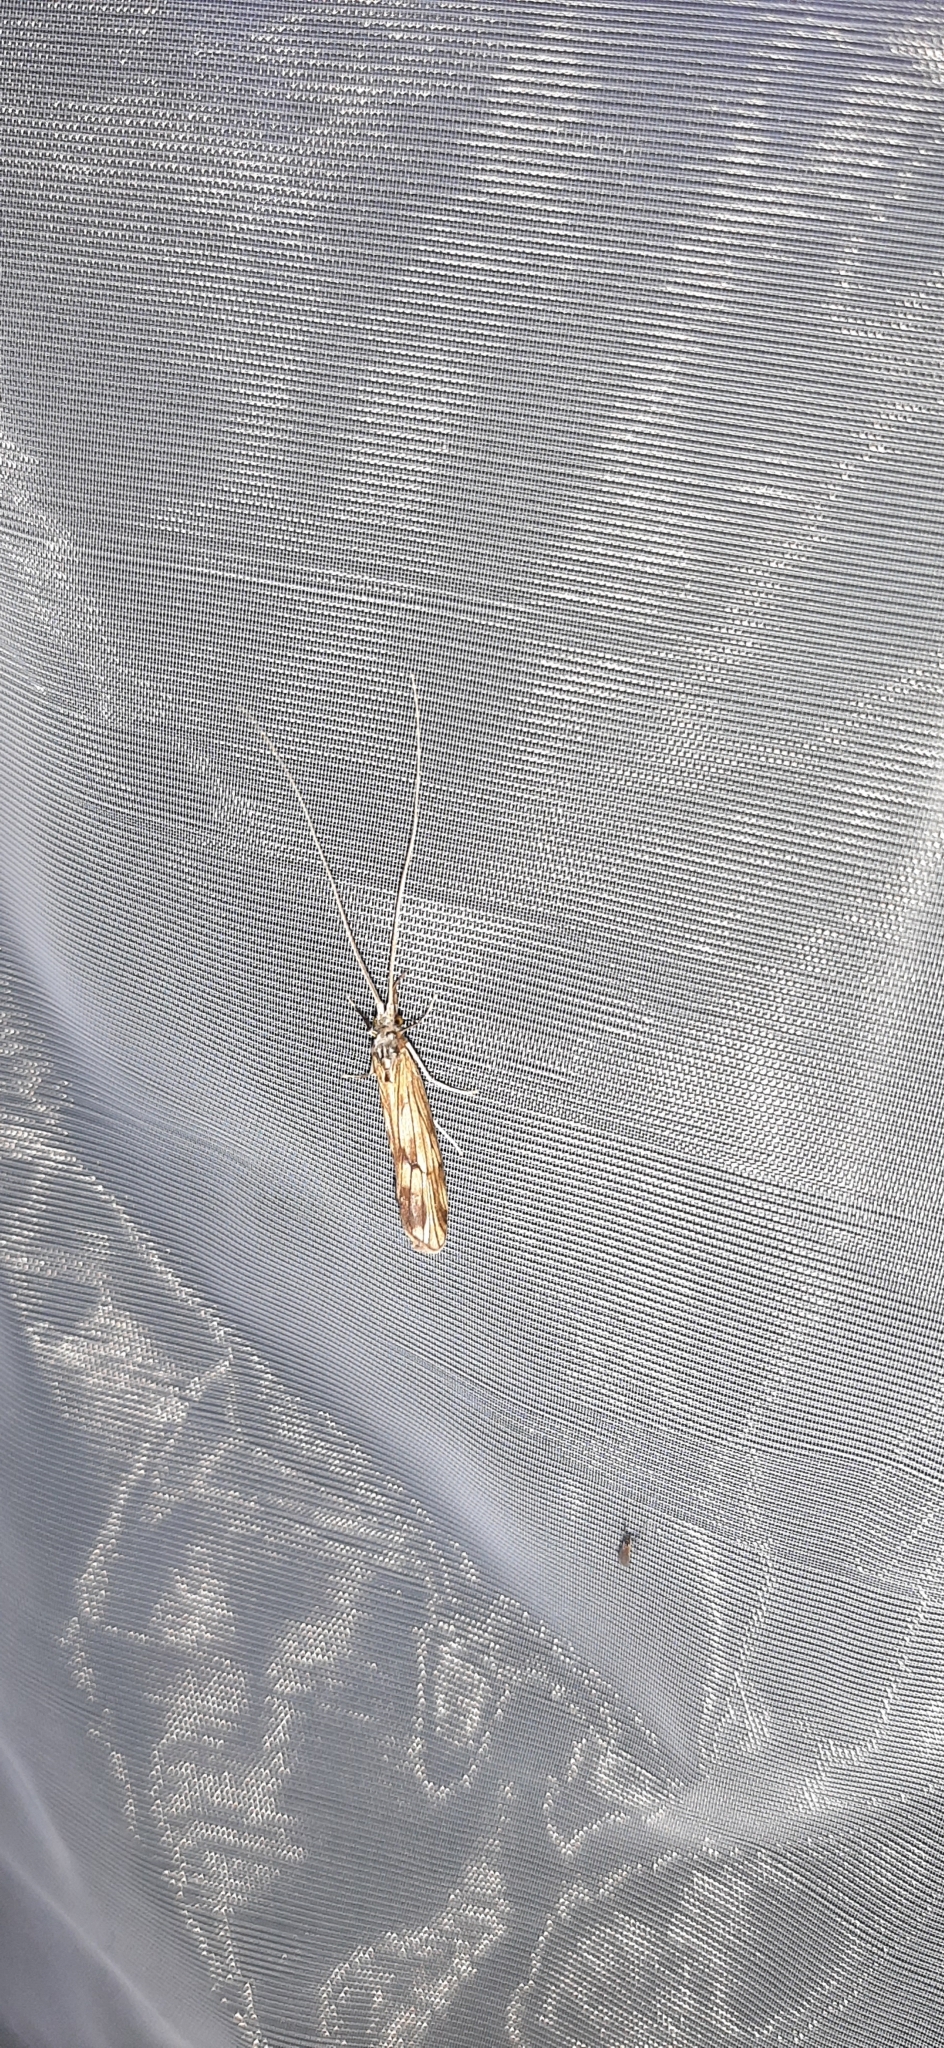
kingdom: Animalia
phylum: Arthropoda
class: Insecta
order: Trichoptera
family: Odontoceridae
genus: Odontocerum
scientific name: Odontocerum albicorne
